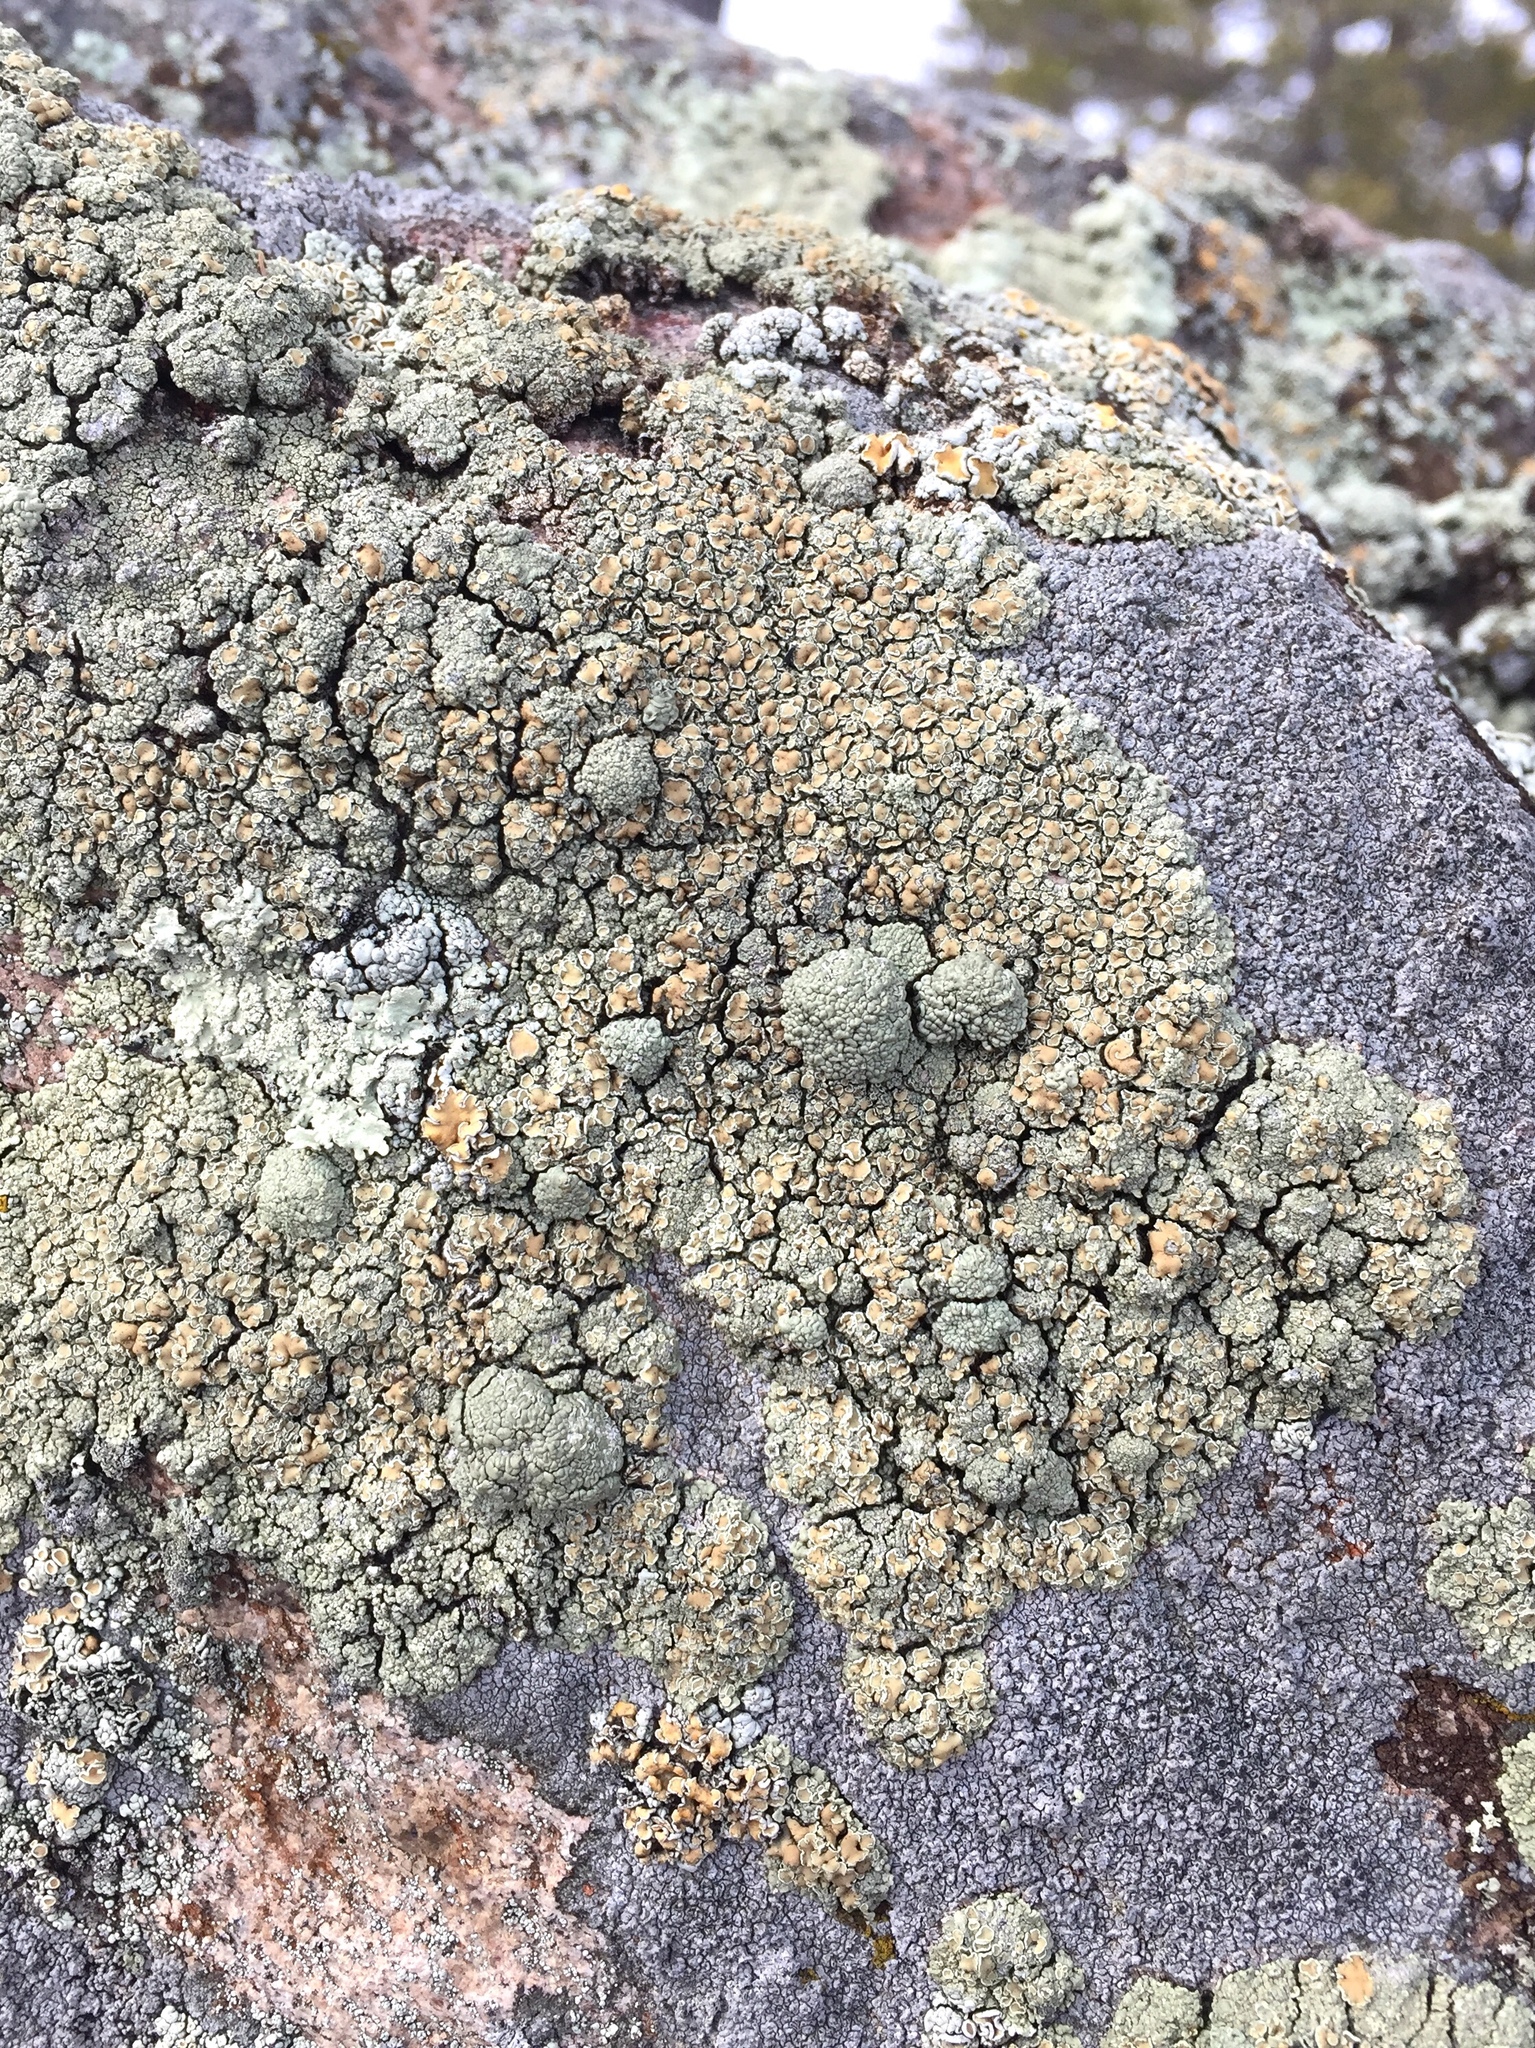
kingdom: Fungi
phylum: Ascomycota
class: Lecanoromycetes
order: Lecanorales
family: Lecanoraceae
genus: Omphalodina
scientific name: Omphalodina opiniconensis
